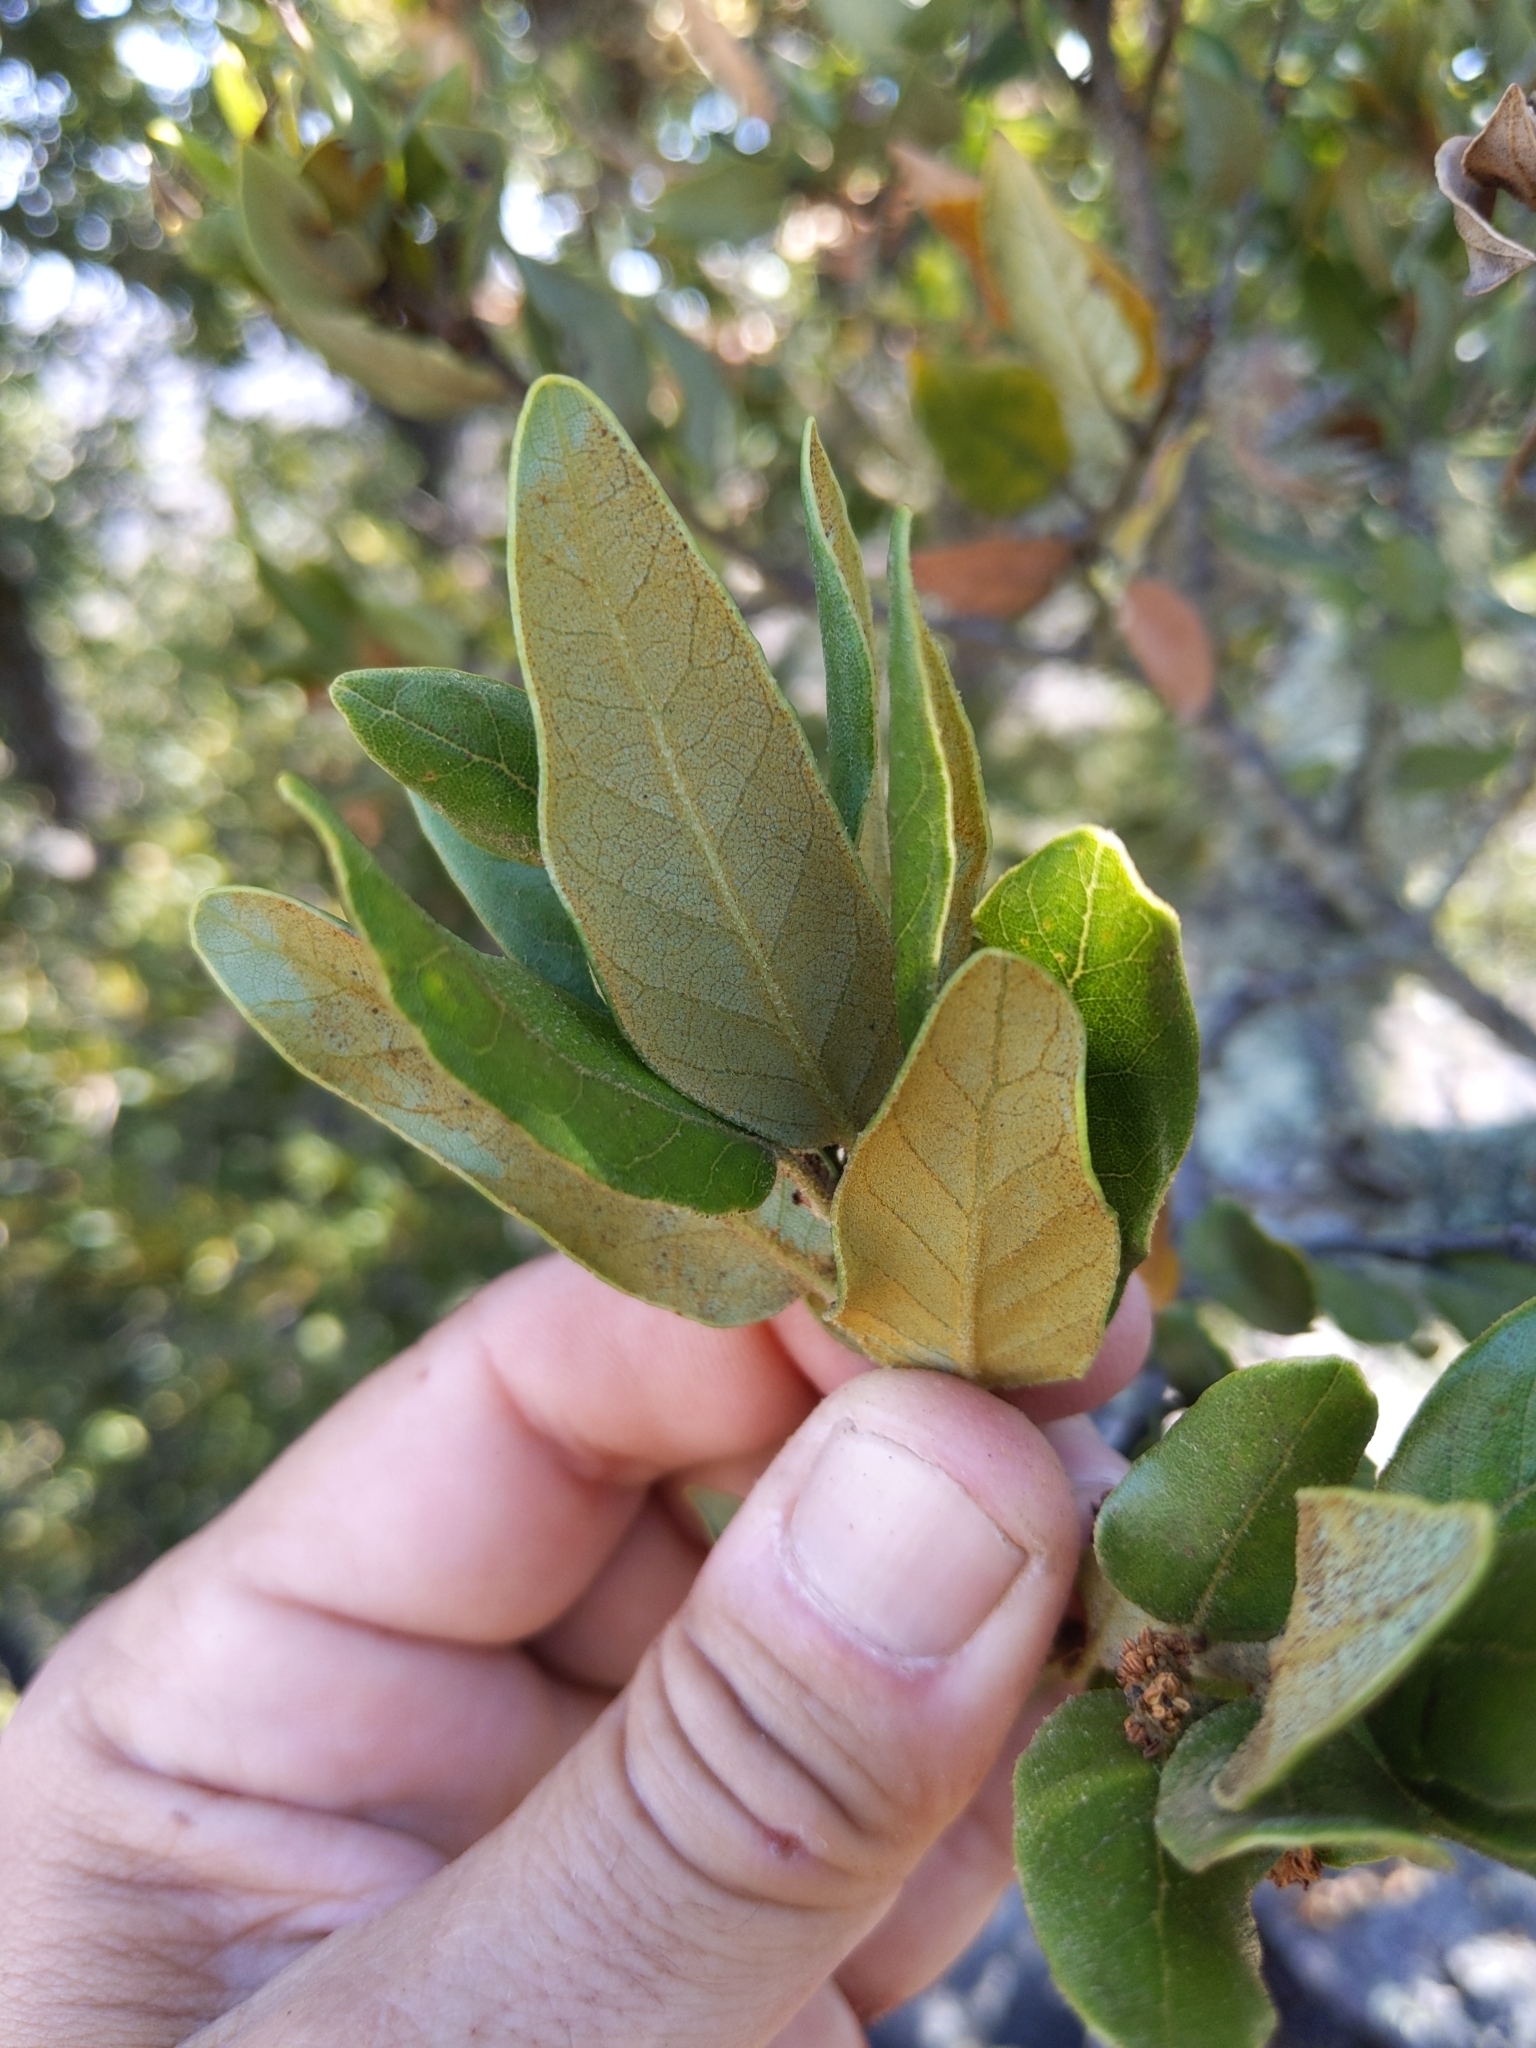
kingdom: Plantae
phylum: Tracheophyta
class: Magnoliopsida
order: Fagales
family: Fagaceae
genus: Quercus
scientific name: Quercus tomentella
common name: Island oak
